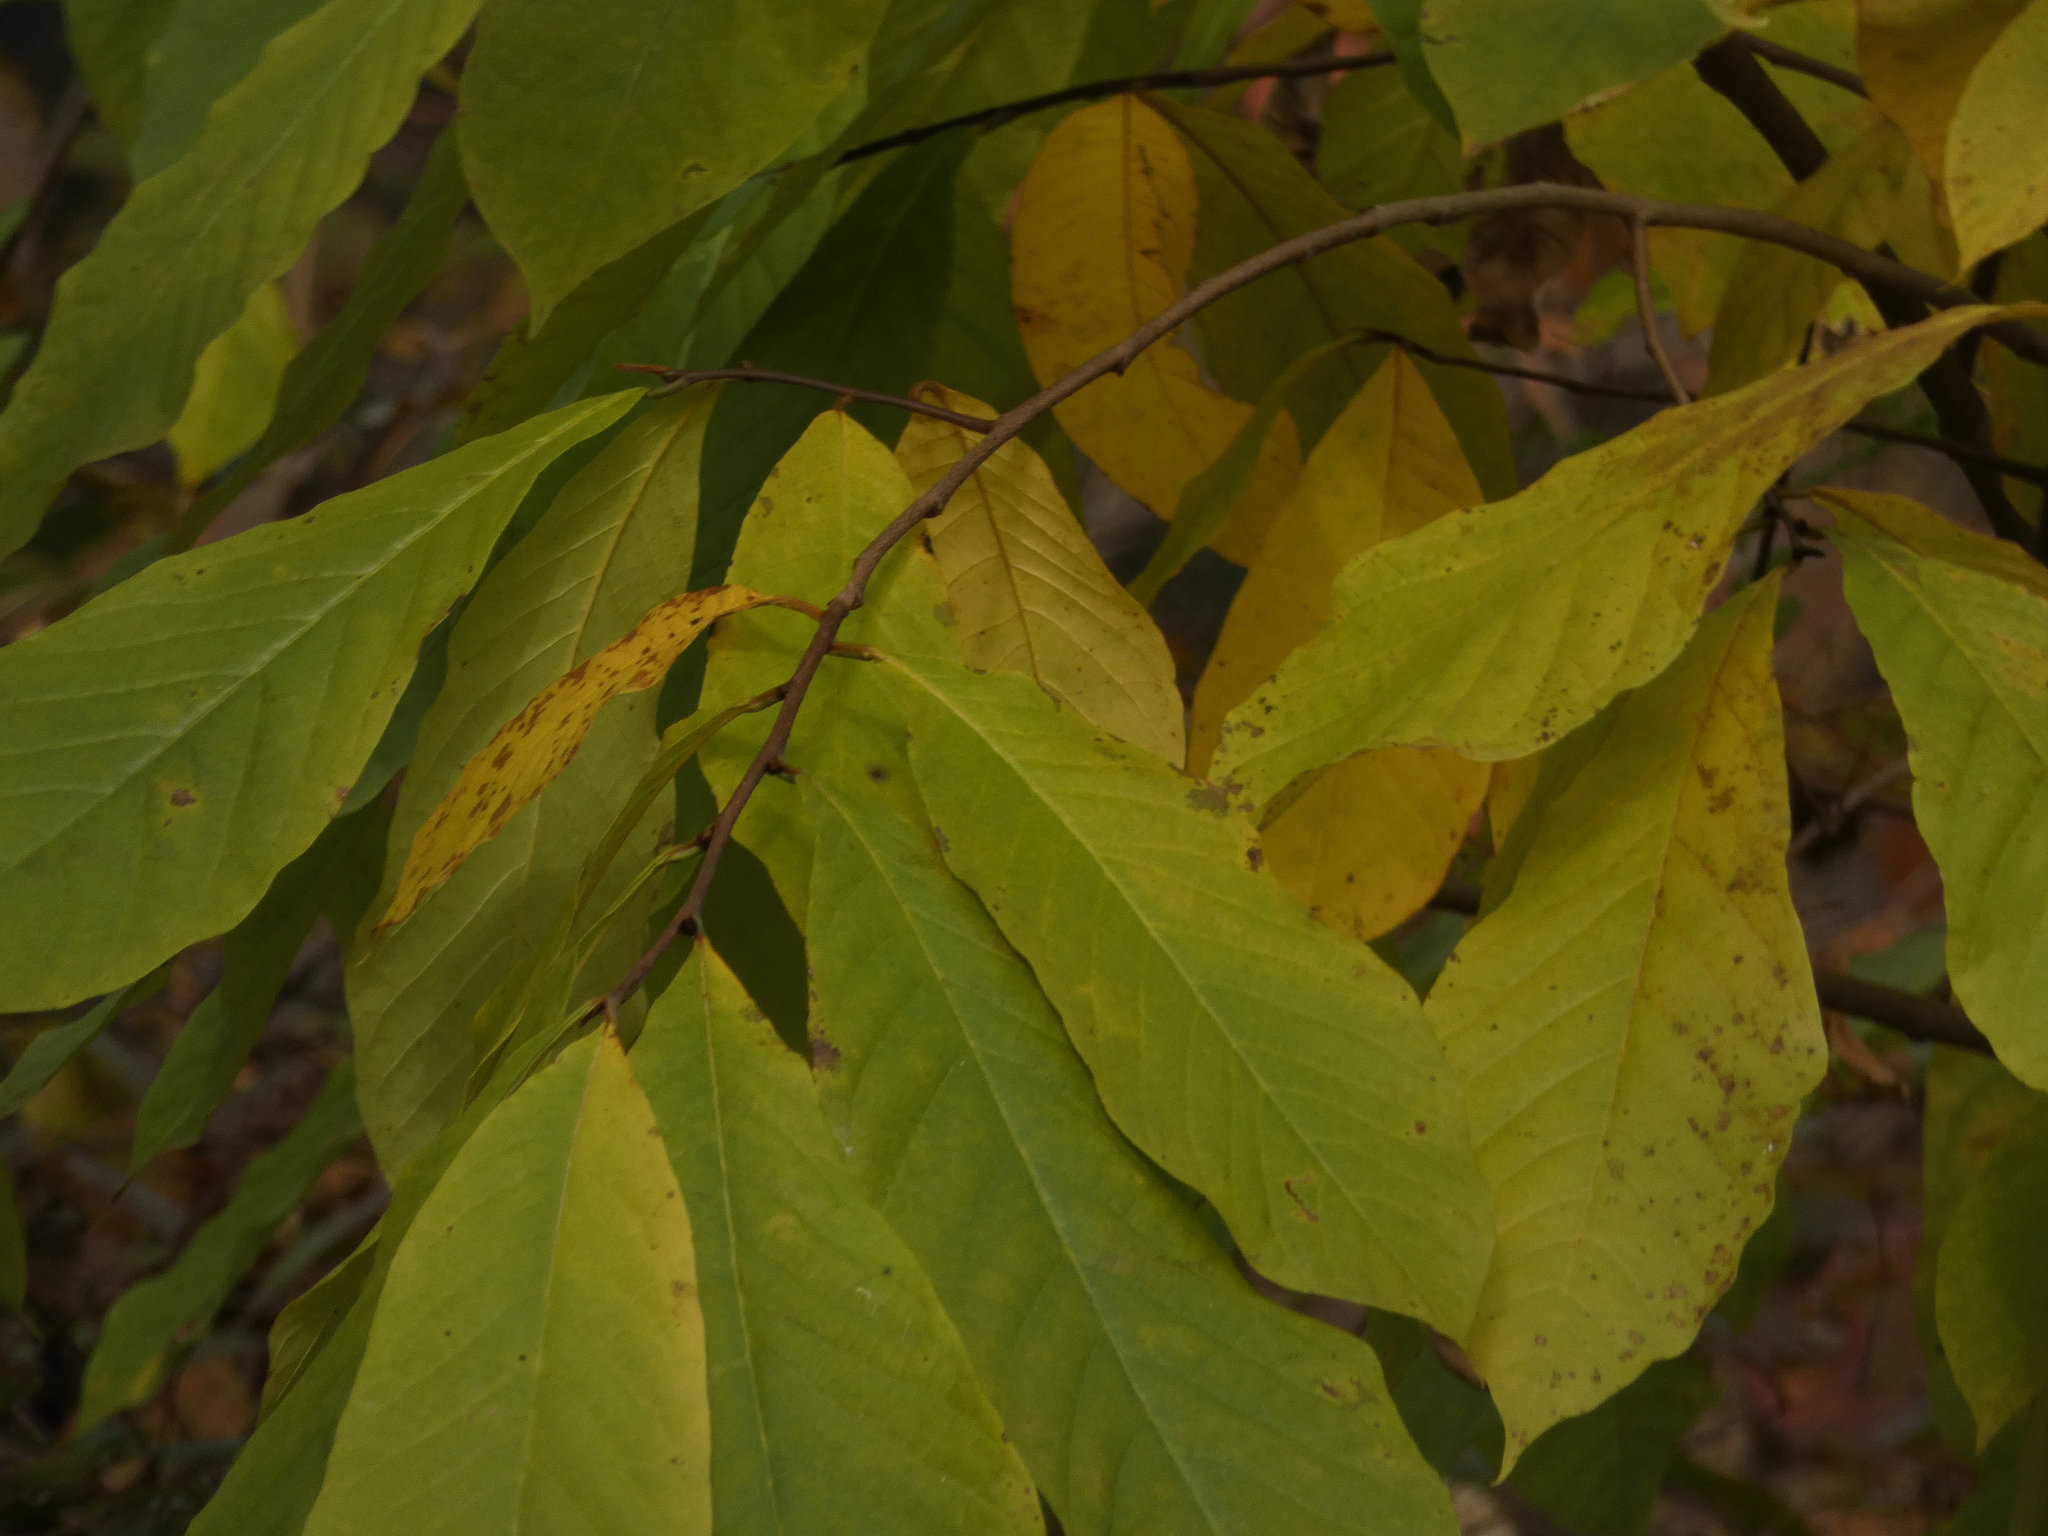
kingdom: Plantae
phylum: Tracheophyta
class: Magnoliopsida
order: Magnoliales
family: Annonaceae
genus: Asimina
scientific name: Asimina triloba
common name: Dog-banana
